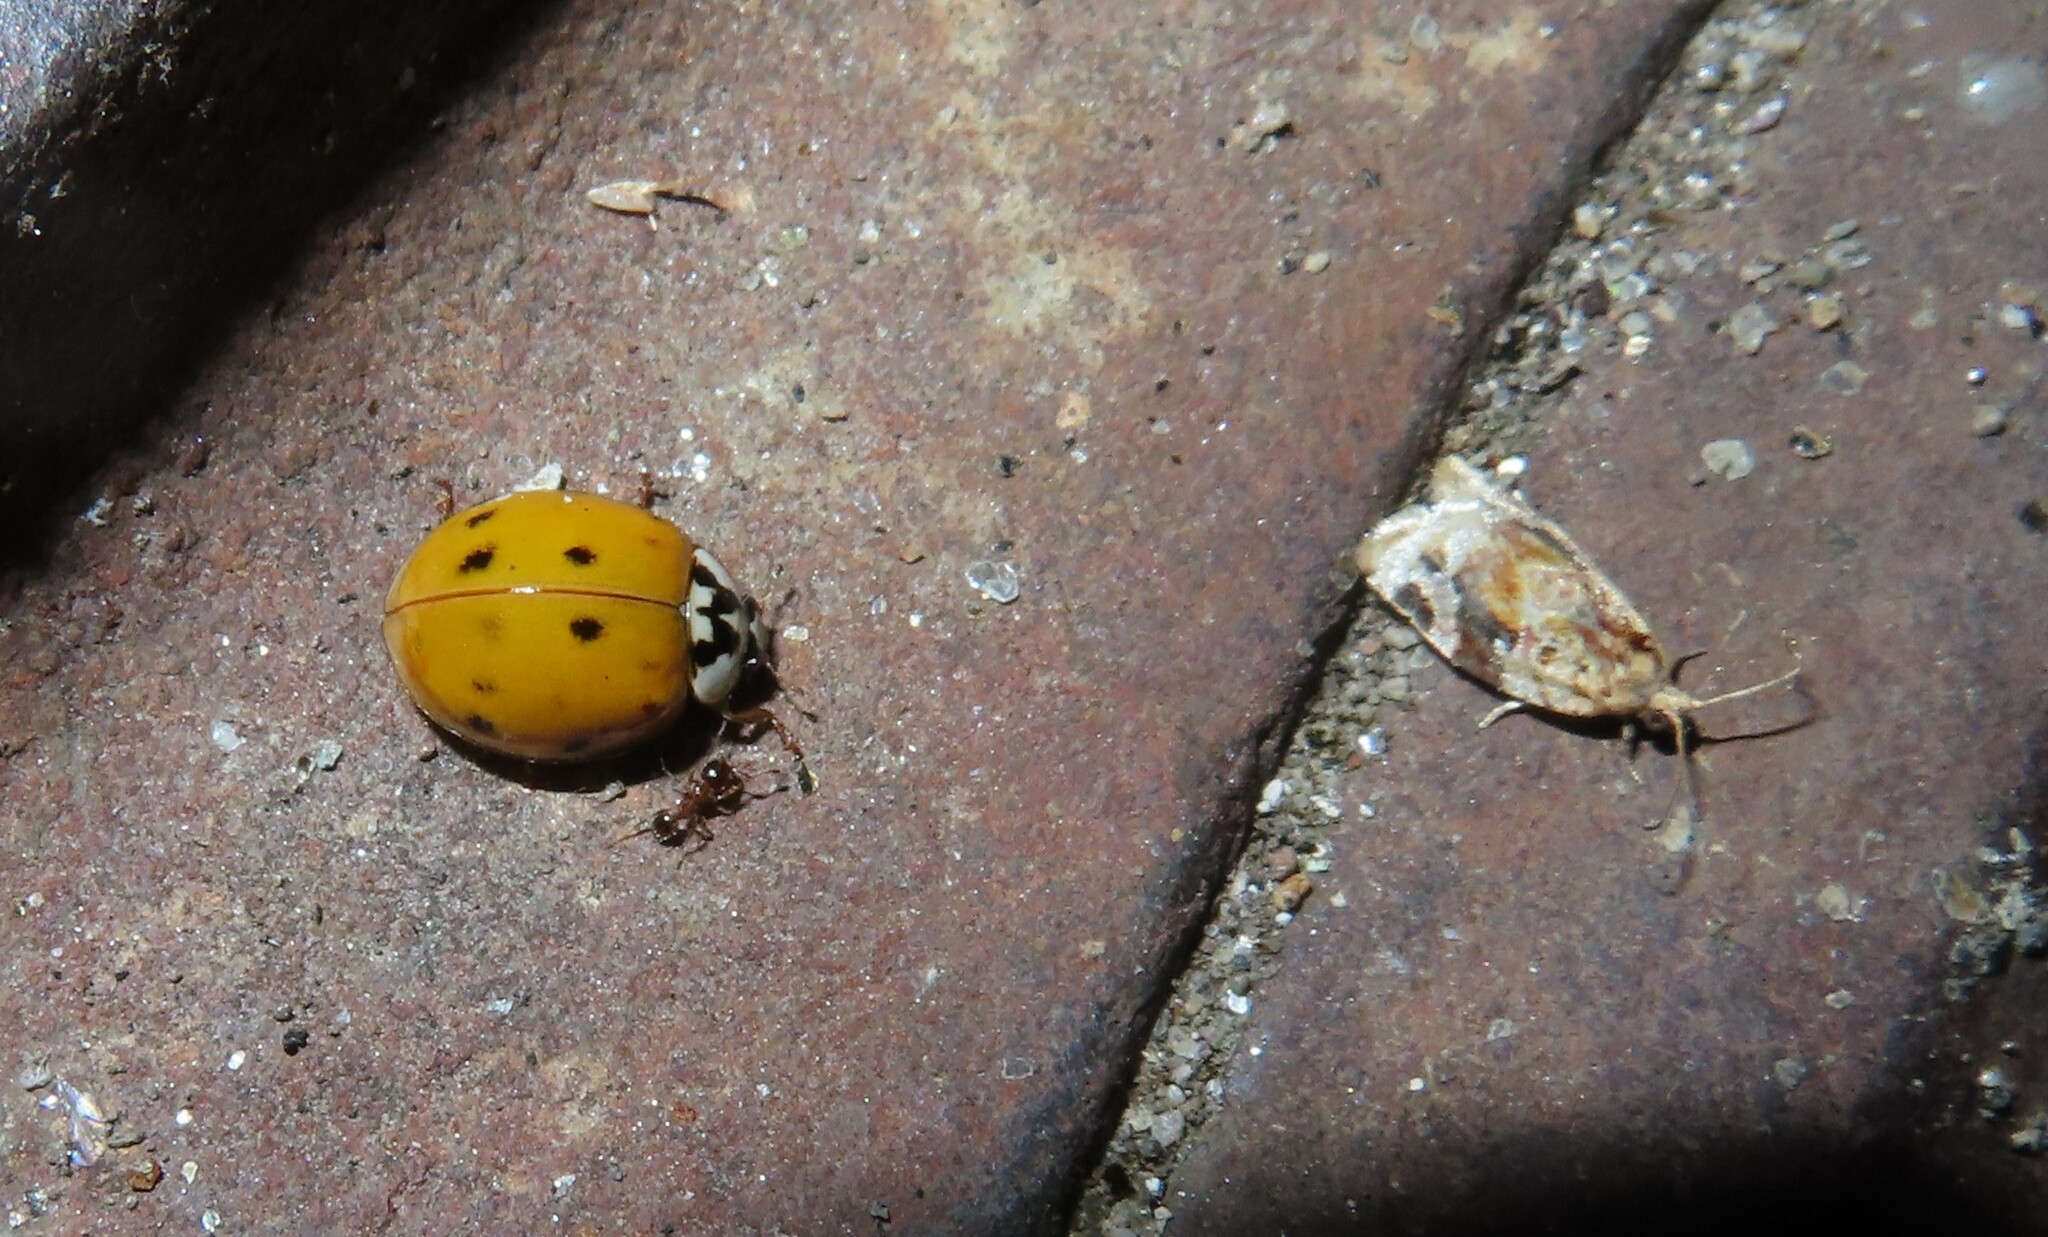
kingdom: Animalia
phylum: Arthropoda
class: Insecta
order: Coleoptera
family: Coccinellidae
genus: Harmonia
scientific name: Harmonia axyridis
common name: Harlequin ladybird
